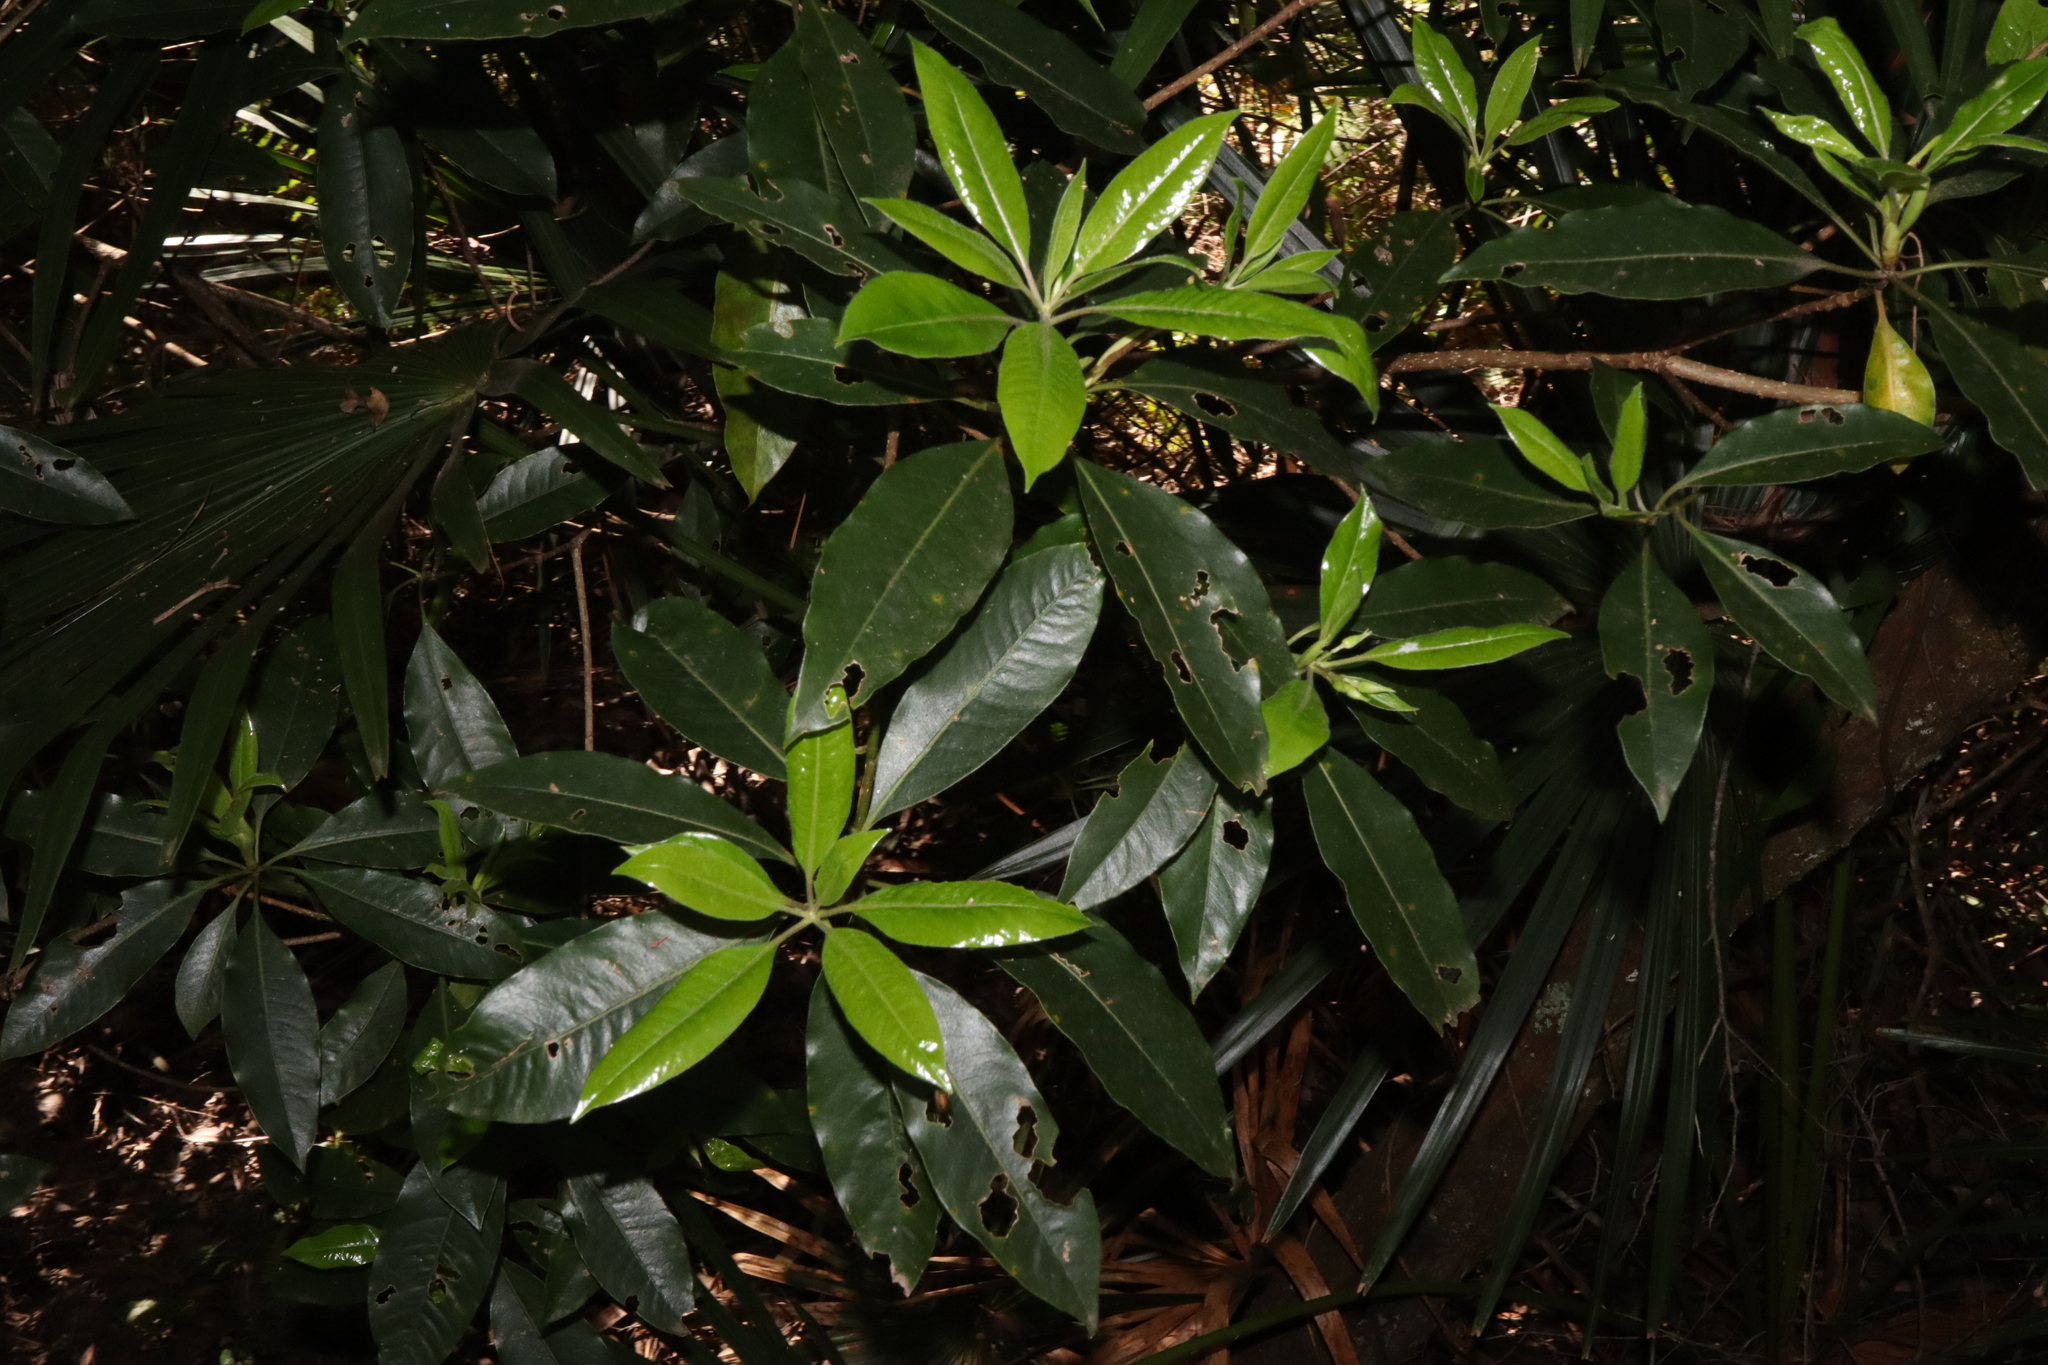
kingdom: Plantae
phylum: Tracheophyta
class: Magnoliopsida
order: Apiales
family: Pittosporaceae
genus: Pittosporum
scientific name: Pittosporum undulatum
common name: Australian cheesewood
